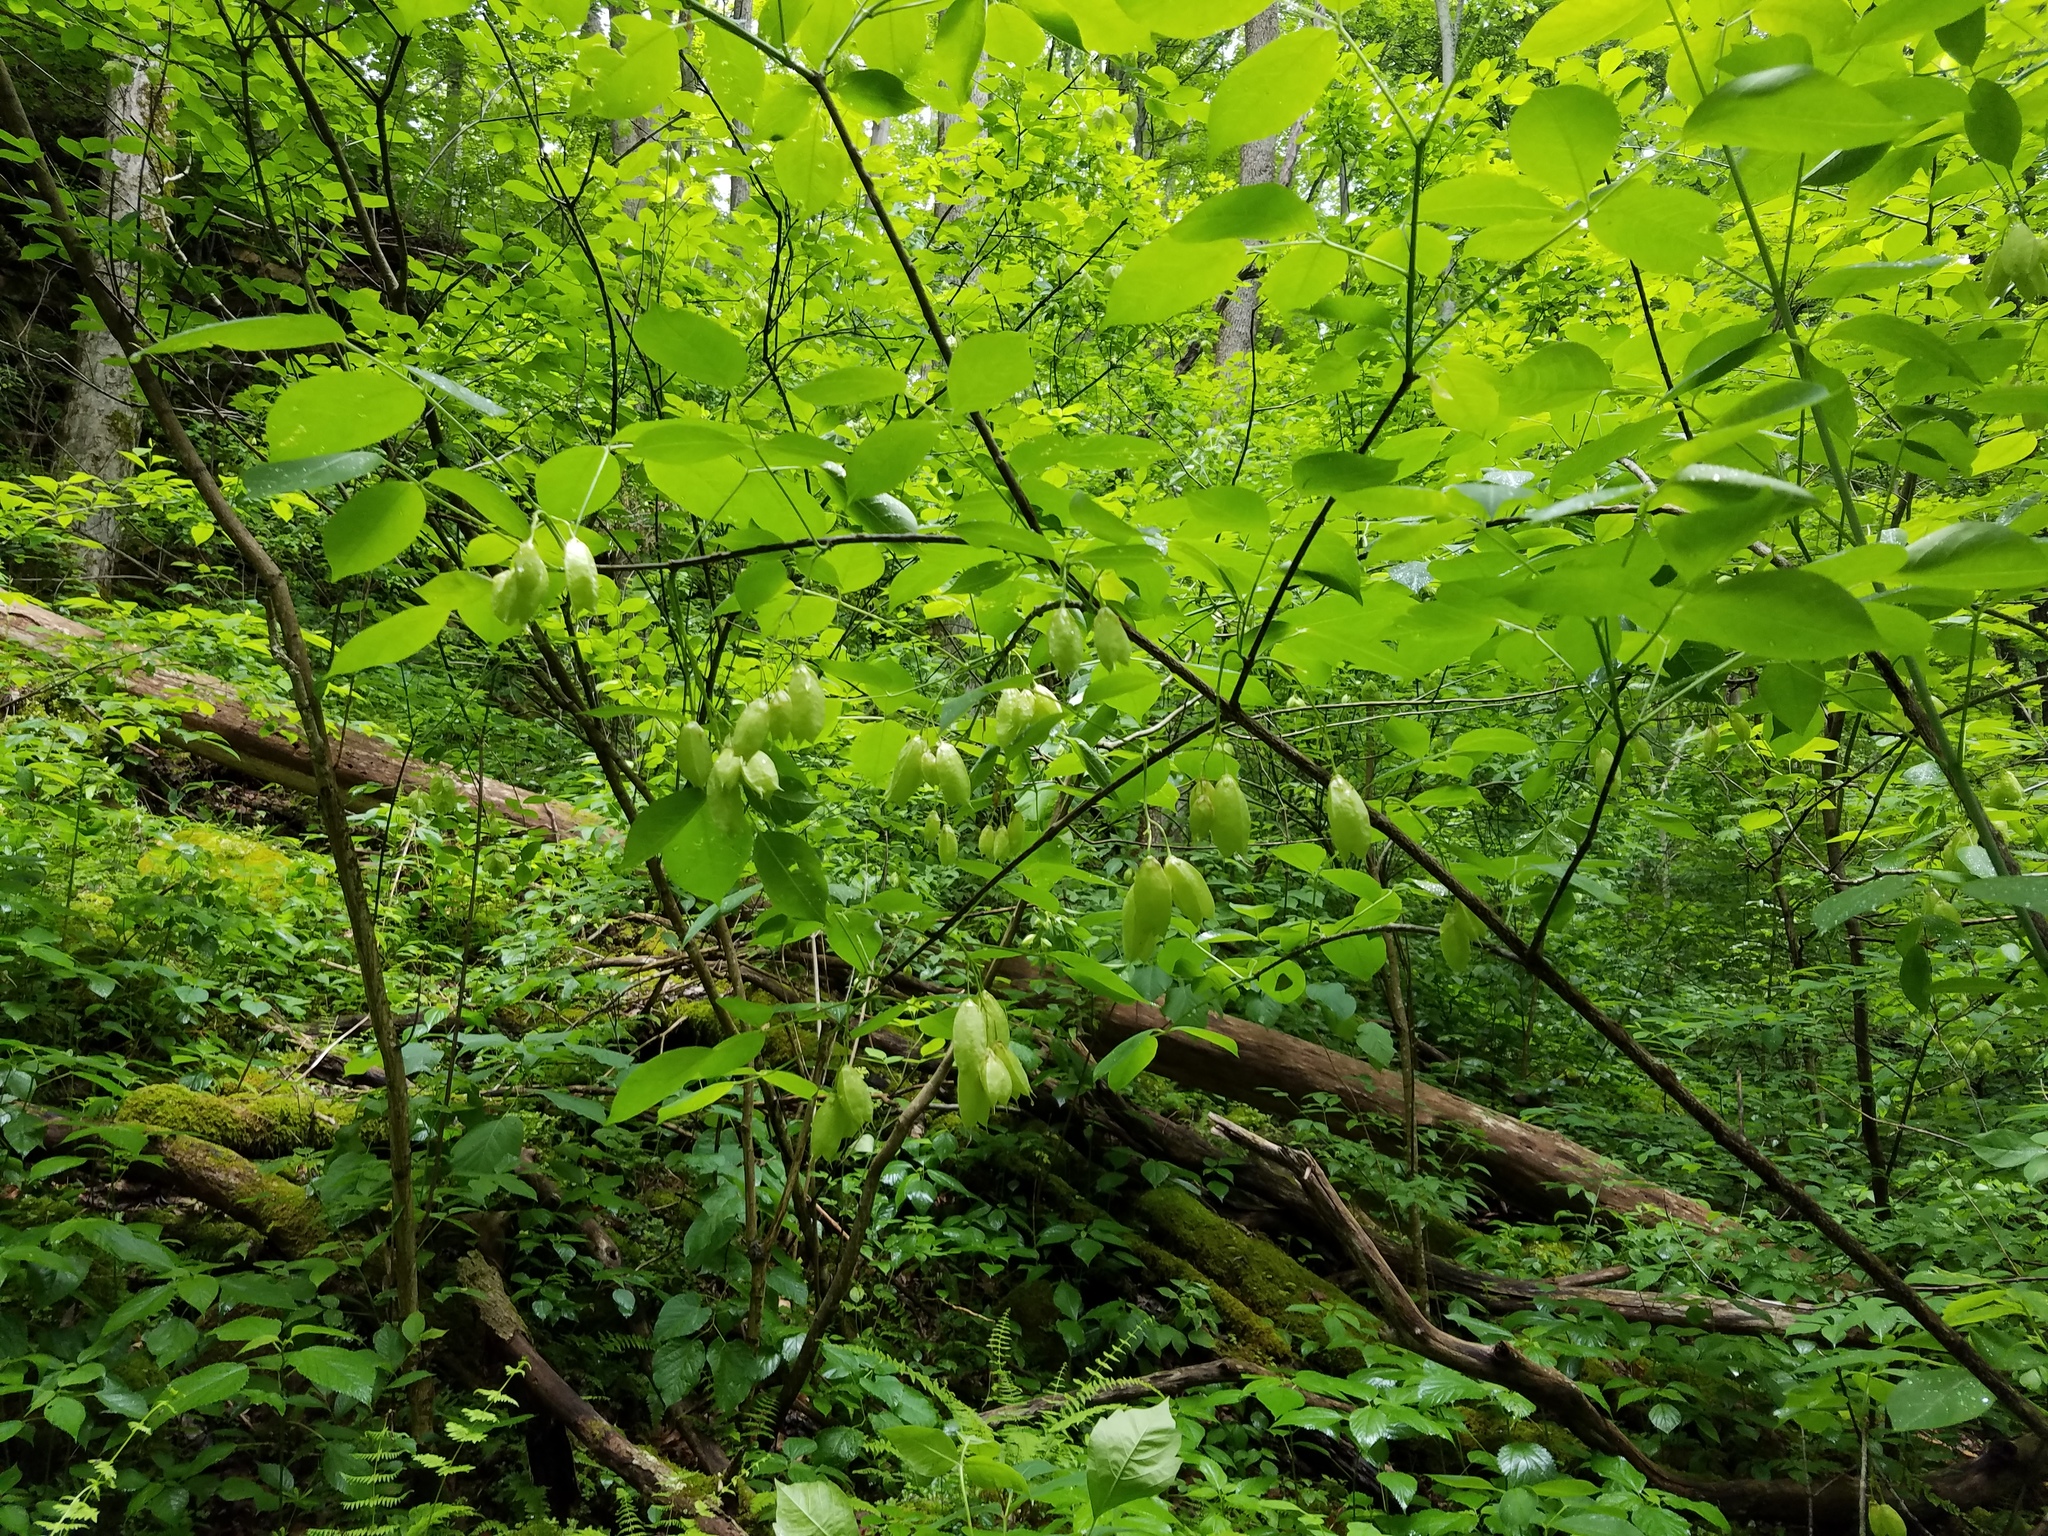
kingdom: Plantae
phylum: Tracheophyta
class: Magnoliopsida
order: Crossosomatales
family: Staphyleaceae
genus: Staphylea
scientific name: Staphylea trifolia
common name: American bladdernut
